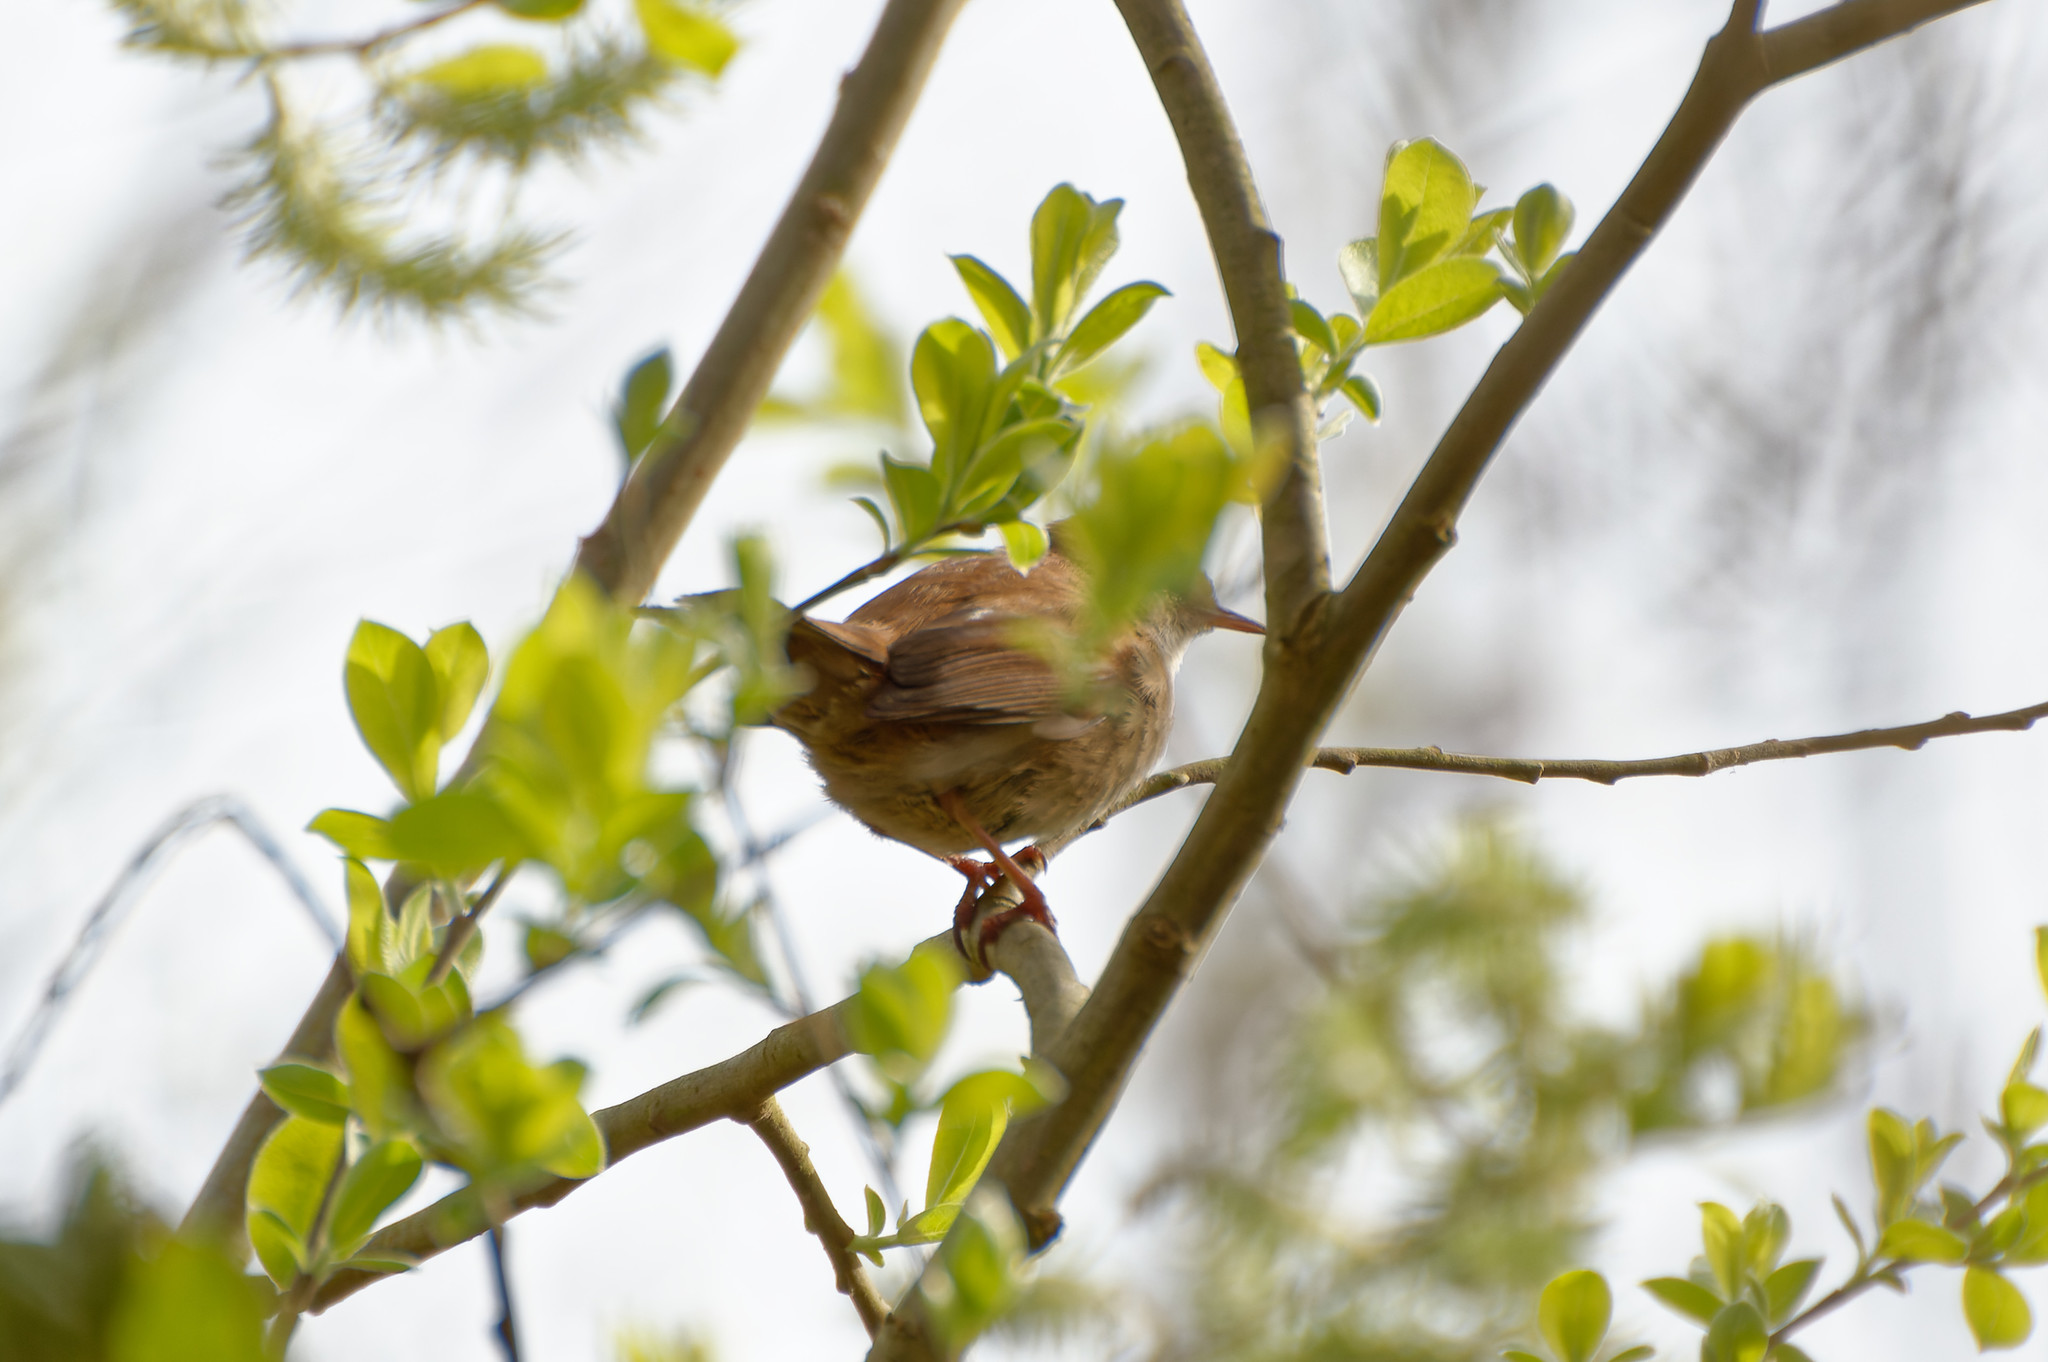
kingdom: Animalia
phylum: Chordata
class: Aves
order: Passeriformes
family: Cettiidae
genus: Cettia
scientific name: Cettia cetti
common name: Cetti's warbler
